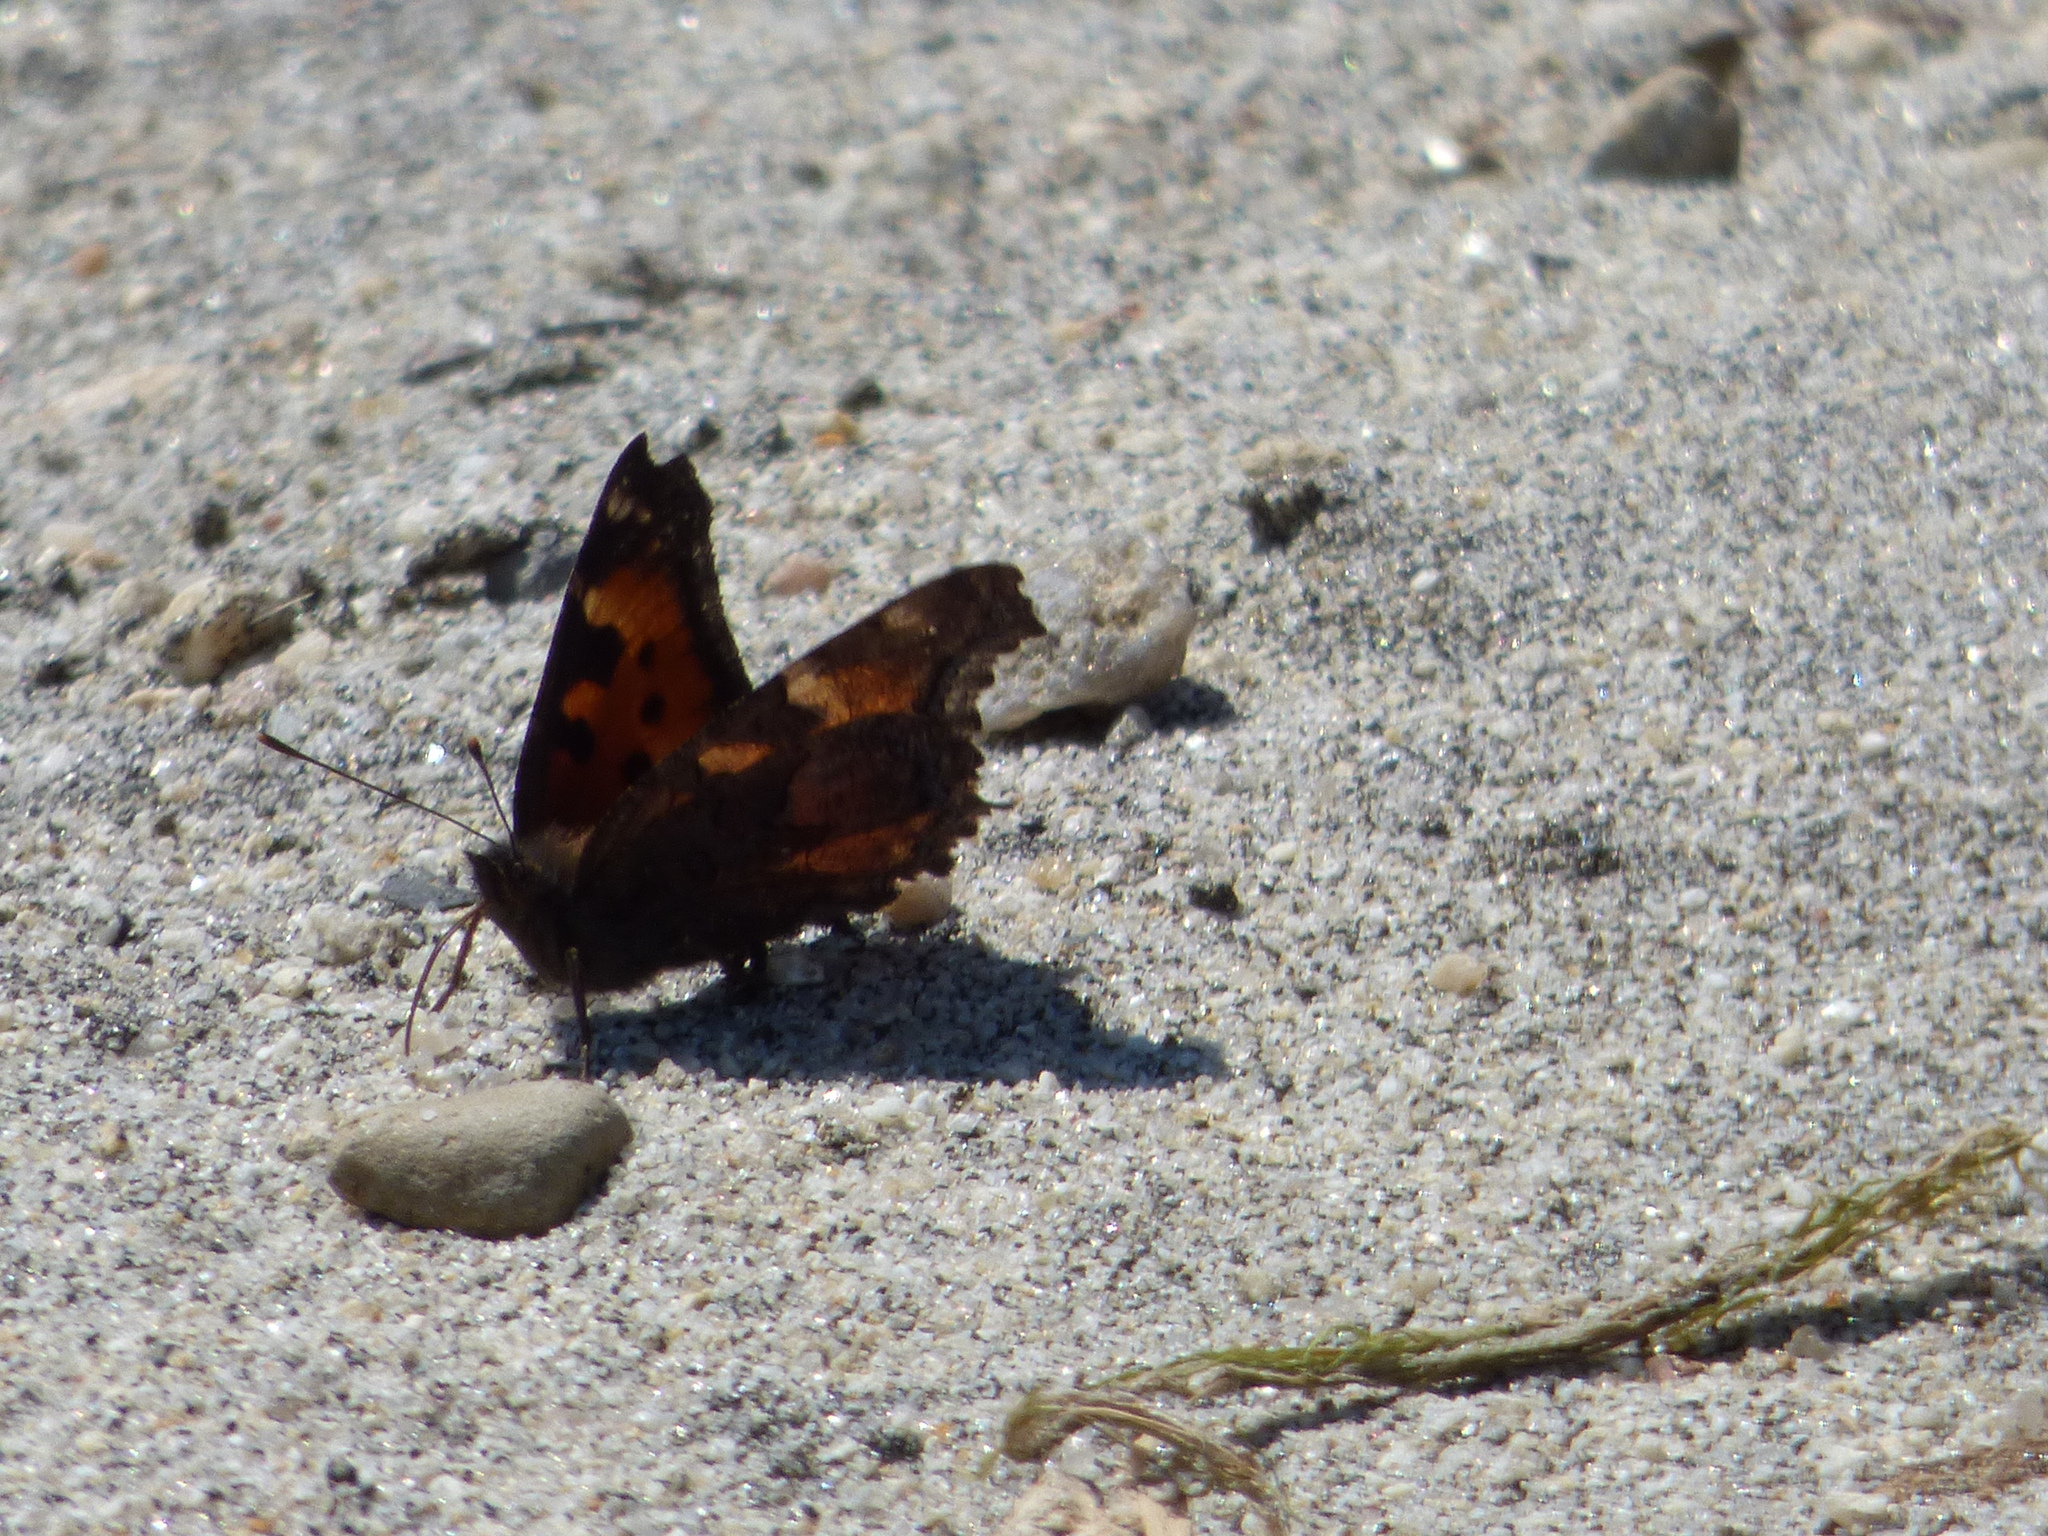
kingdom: Animalia
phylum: Arthropoda
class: Insecta
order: Lepidoptera
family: Nymphalidae
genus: Nymphalis
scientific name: Nymphalis californica
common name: California tortoiseshell
